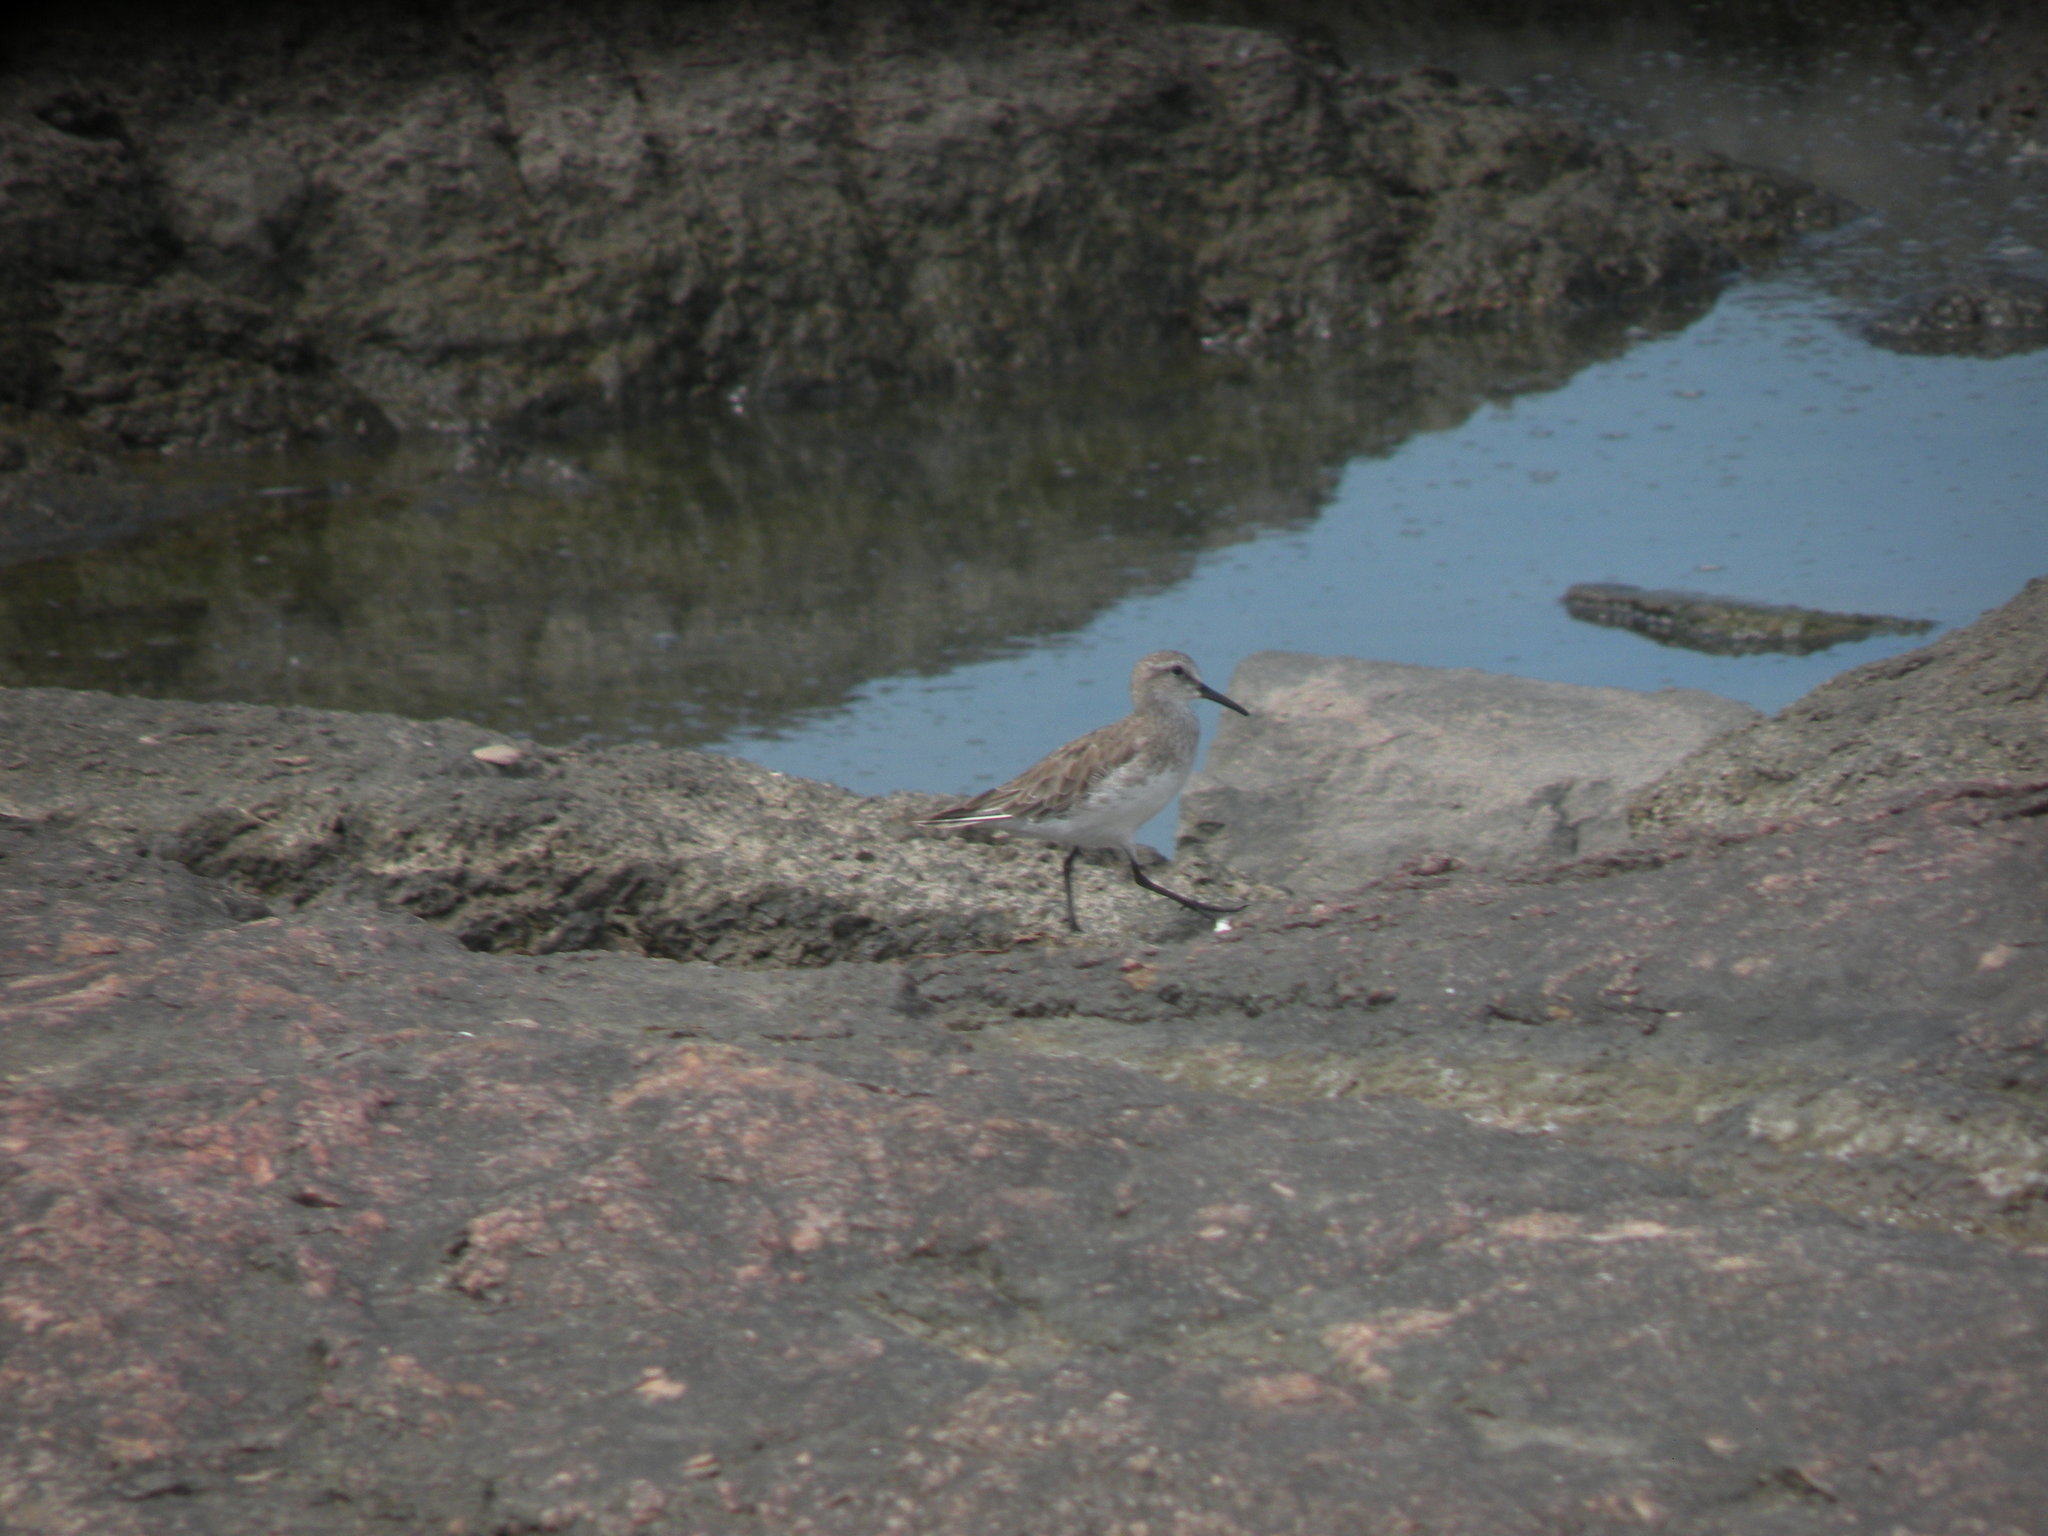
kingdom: Animalia
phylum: Chordata
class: Aves
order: Charadriiformes
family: Scolopacidae
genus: Calidris
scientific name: Calidris fuscicollis
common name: White-rumped sandpiper
